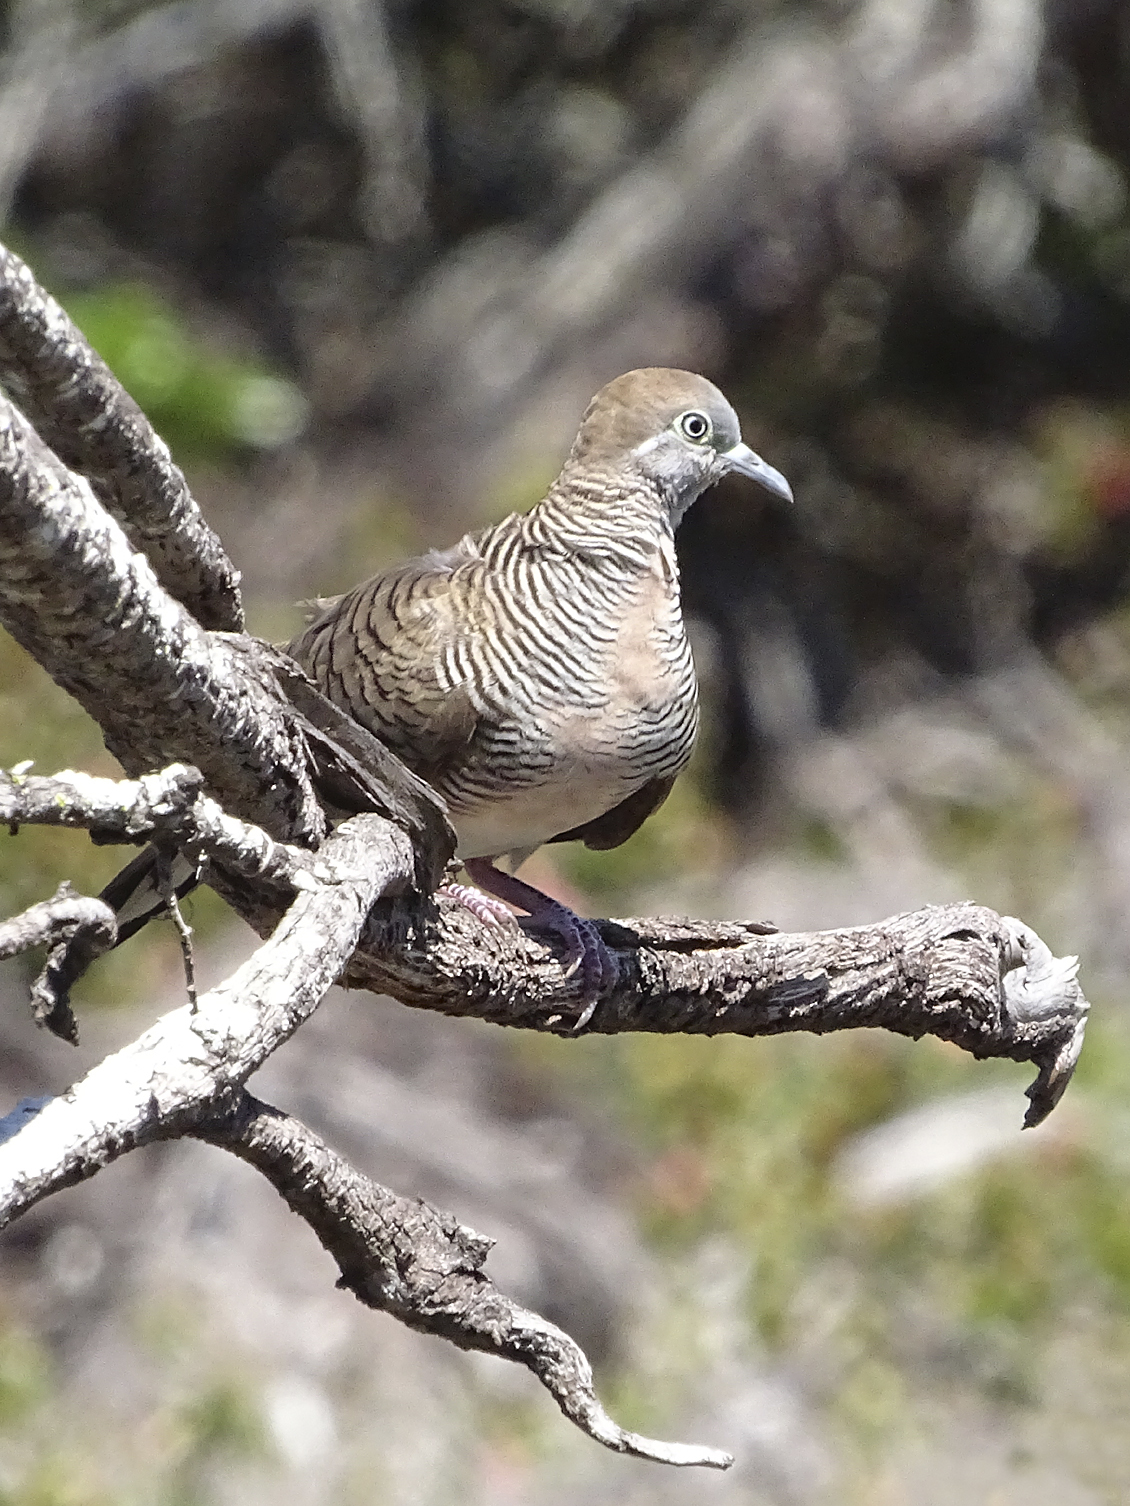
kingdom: Animalia
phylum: Chordata
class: Aves
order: Columbiformes
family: Columbidae
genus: Geopelia
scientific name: Geopelia striata
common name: Zebra dove
